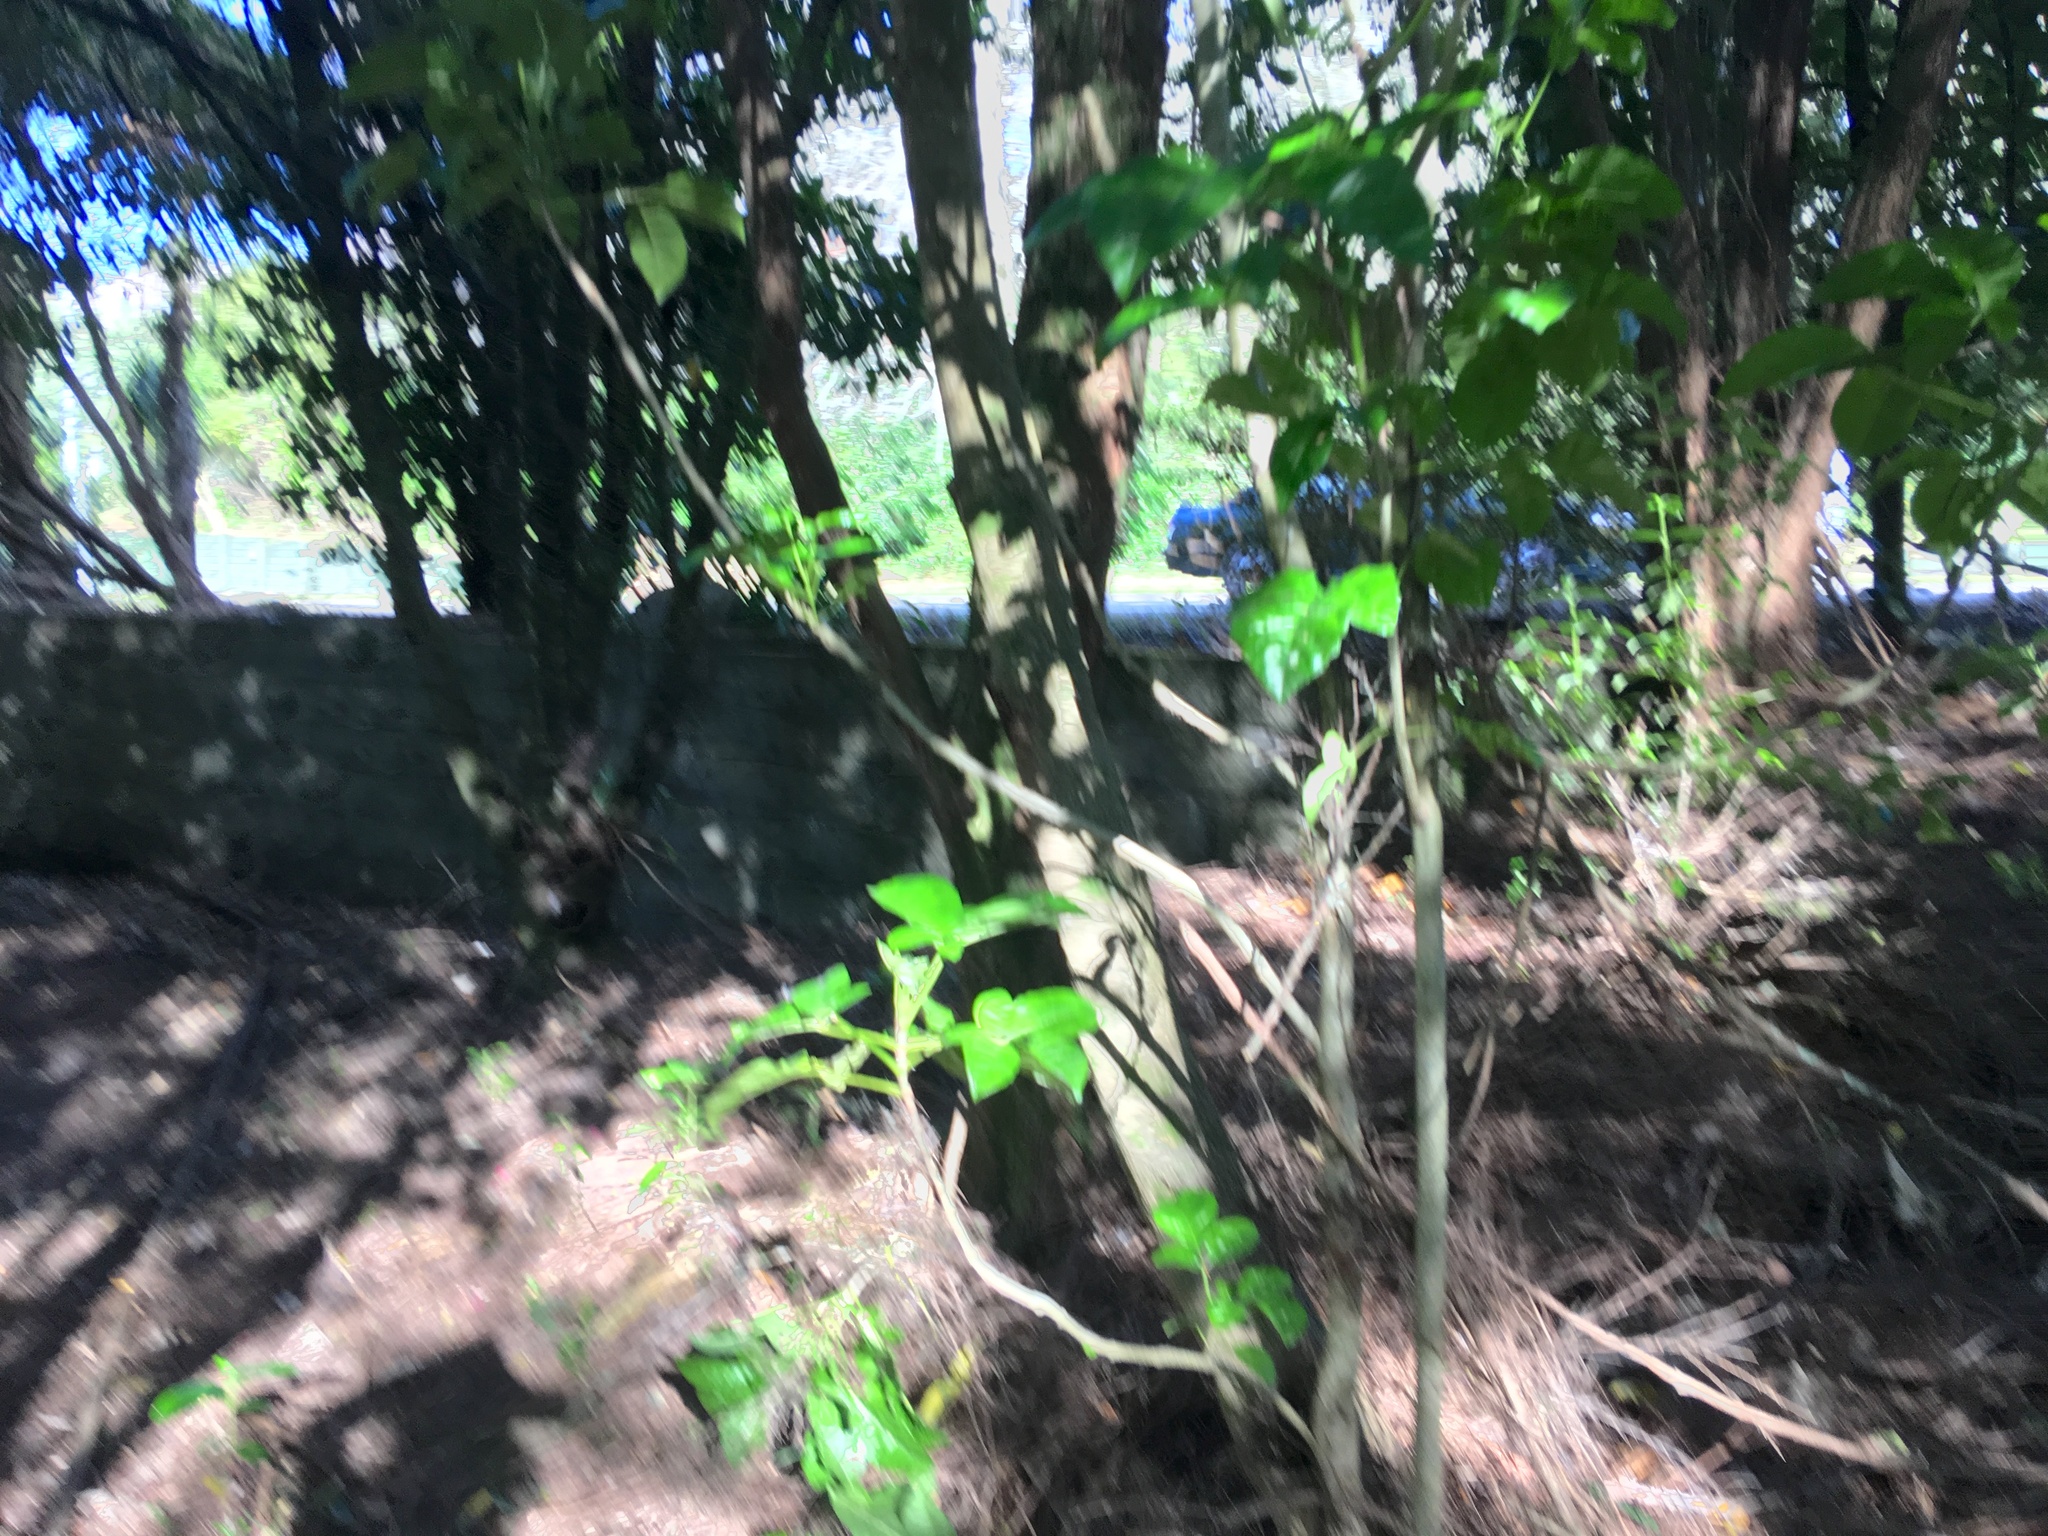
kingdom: Plantae
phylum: Tracheophyta
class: Magnoliopsida
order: Lamiales
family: Lamiaceae
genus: Vitex
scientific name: Vitex lucens
